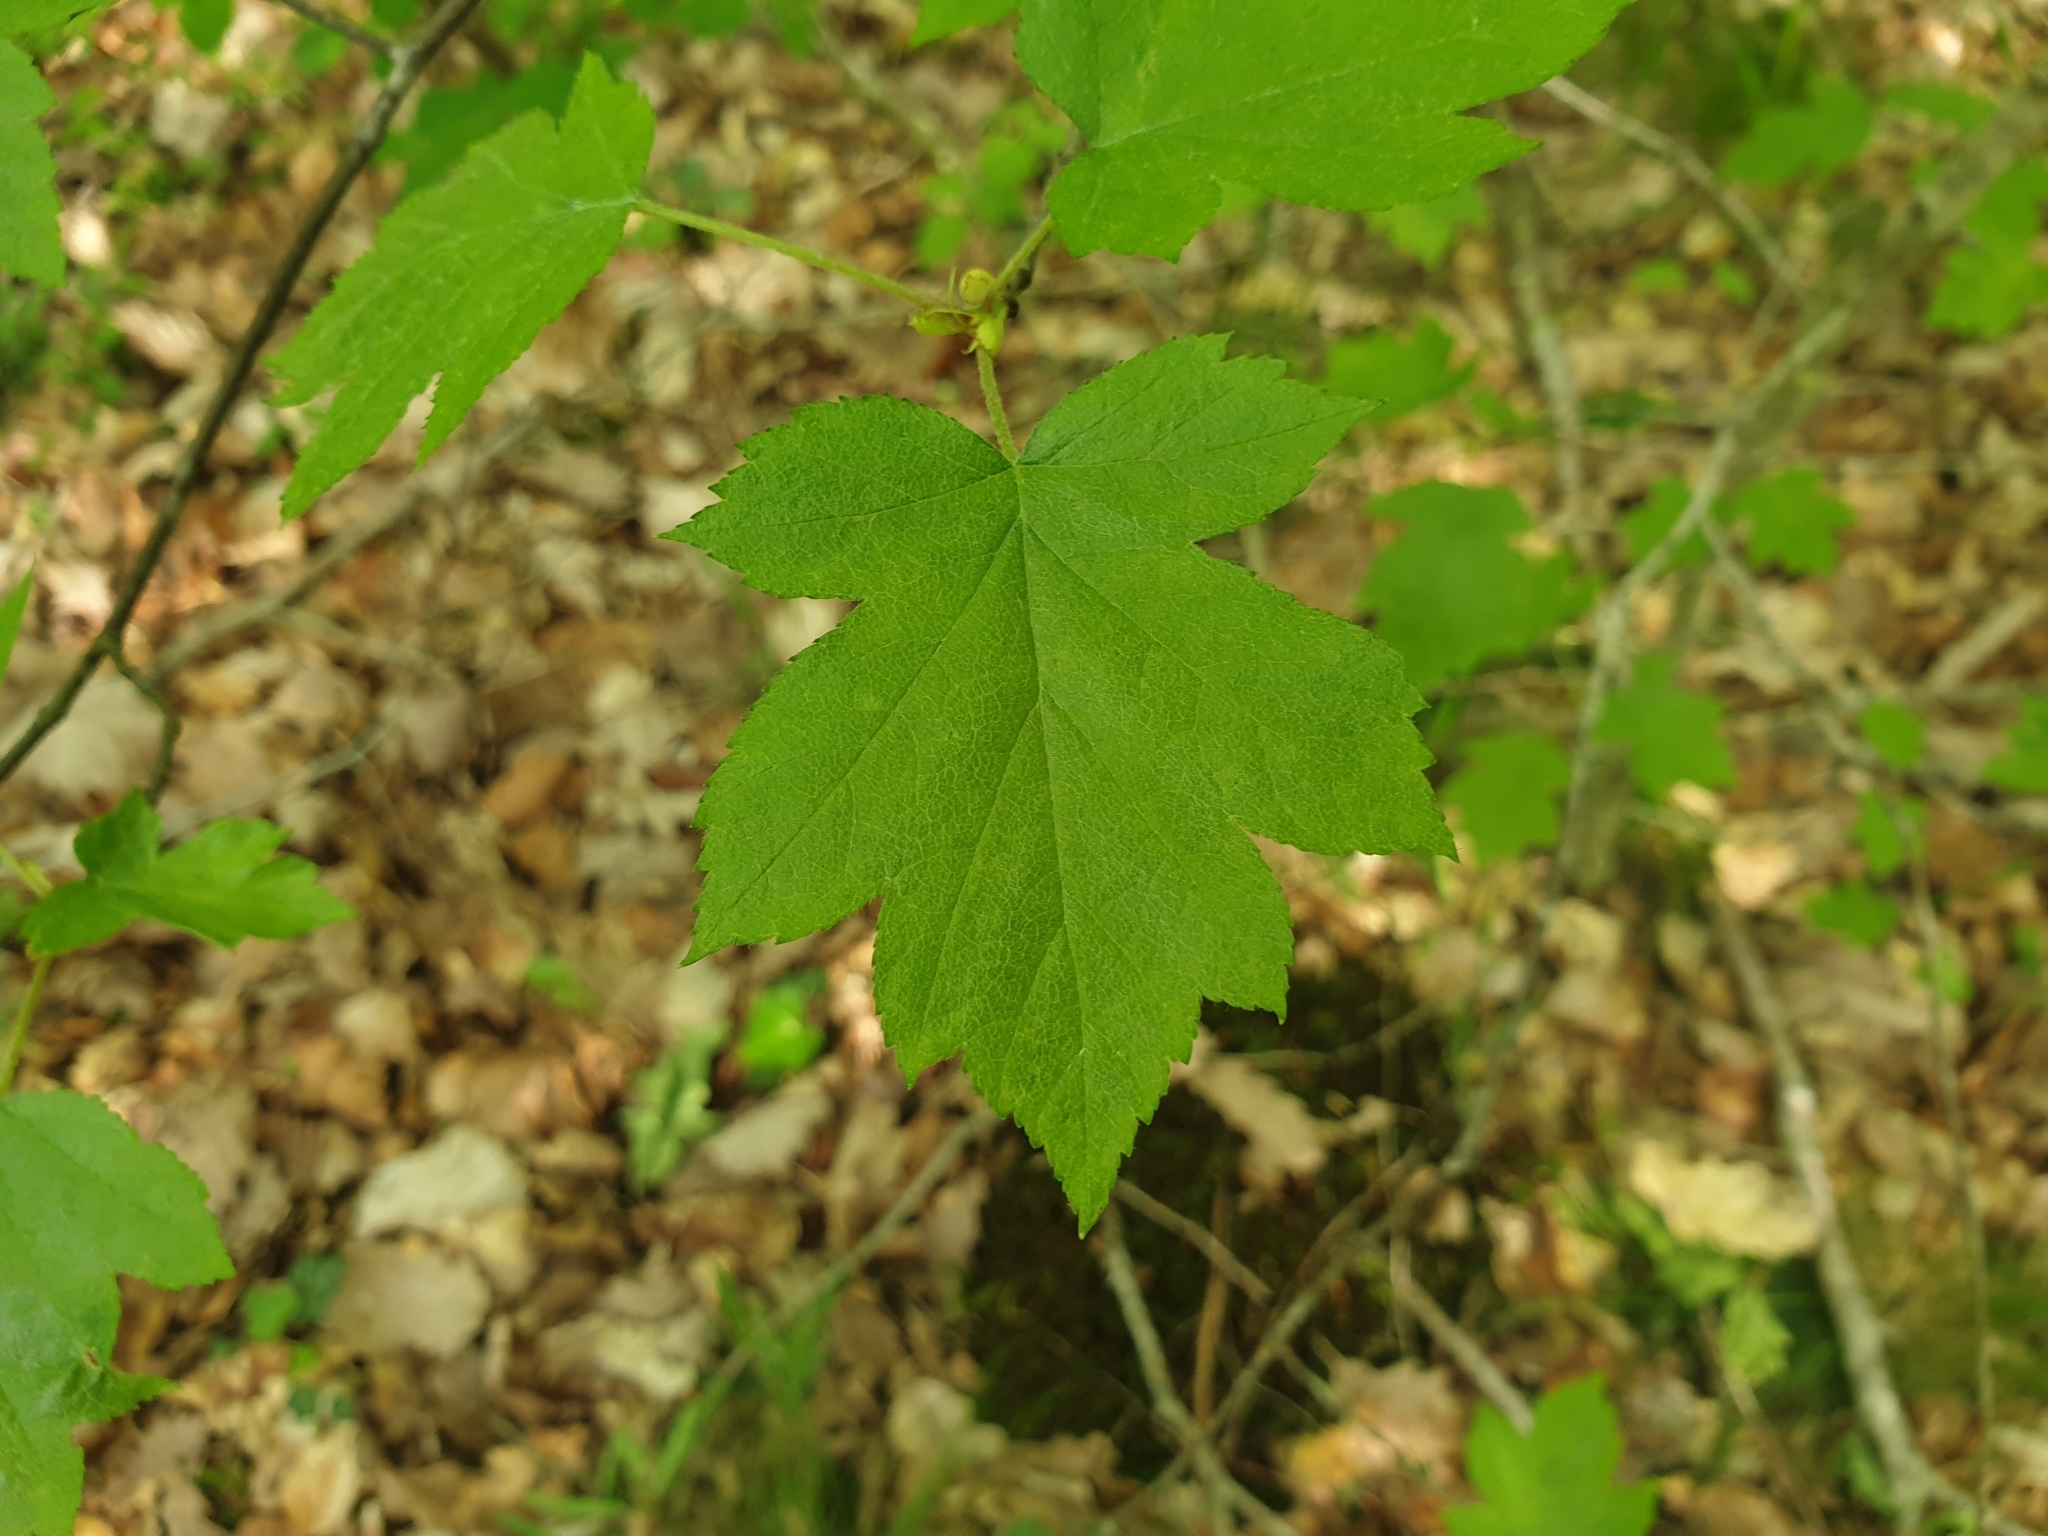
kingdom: Plantae
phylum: Tracheophyta
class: Magnoliopsida
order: Rosales
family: Rosaceae
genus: Torminalis
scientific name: Torminalis glaberrima
